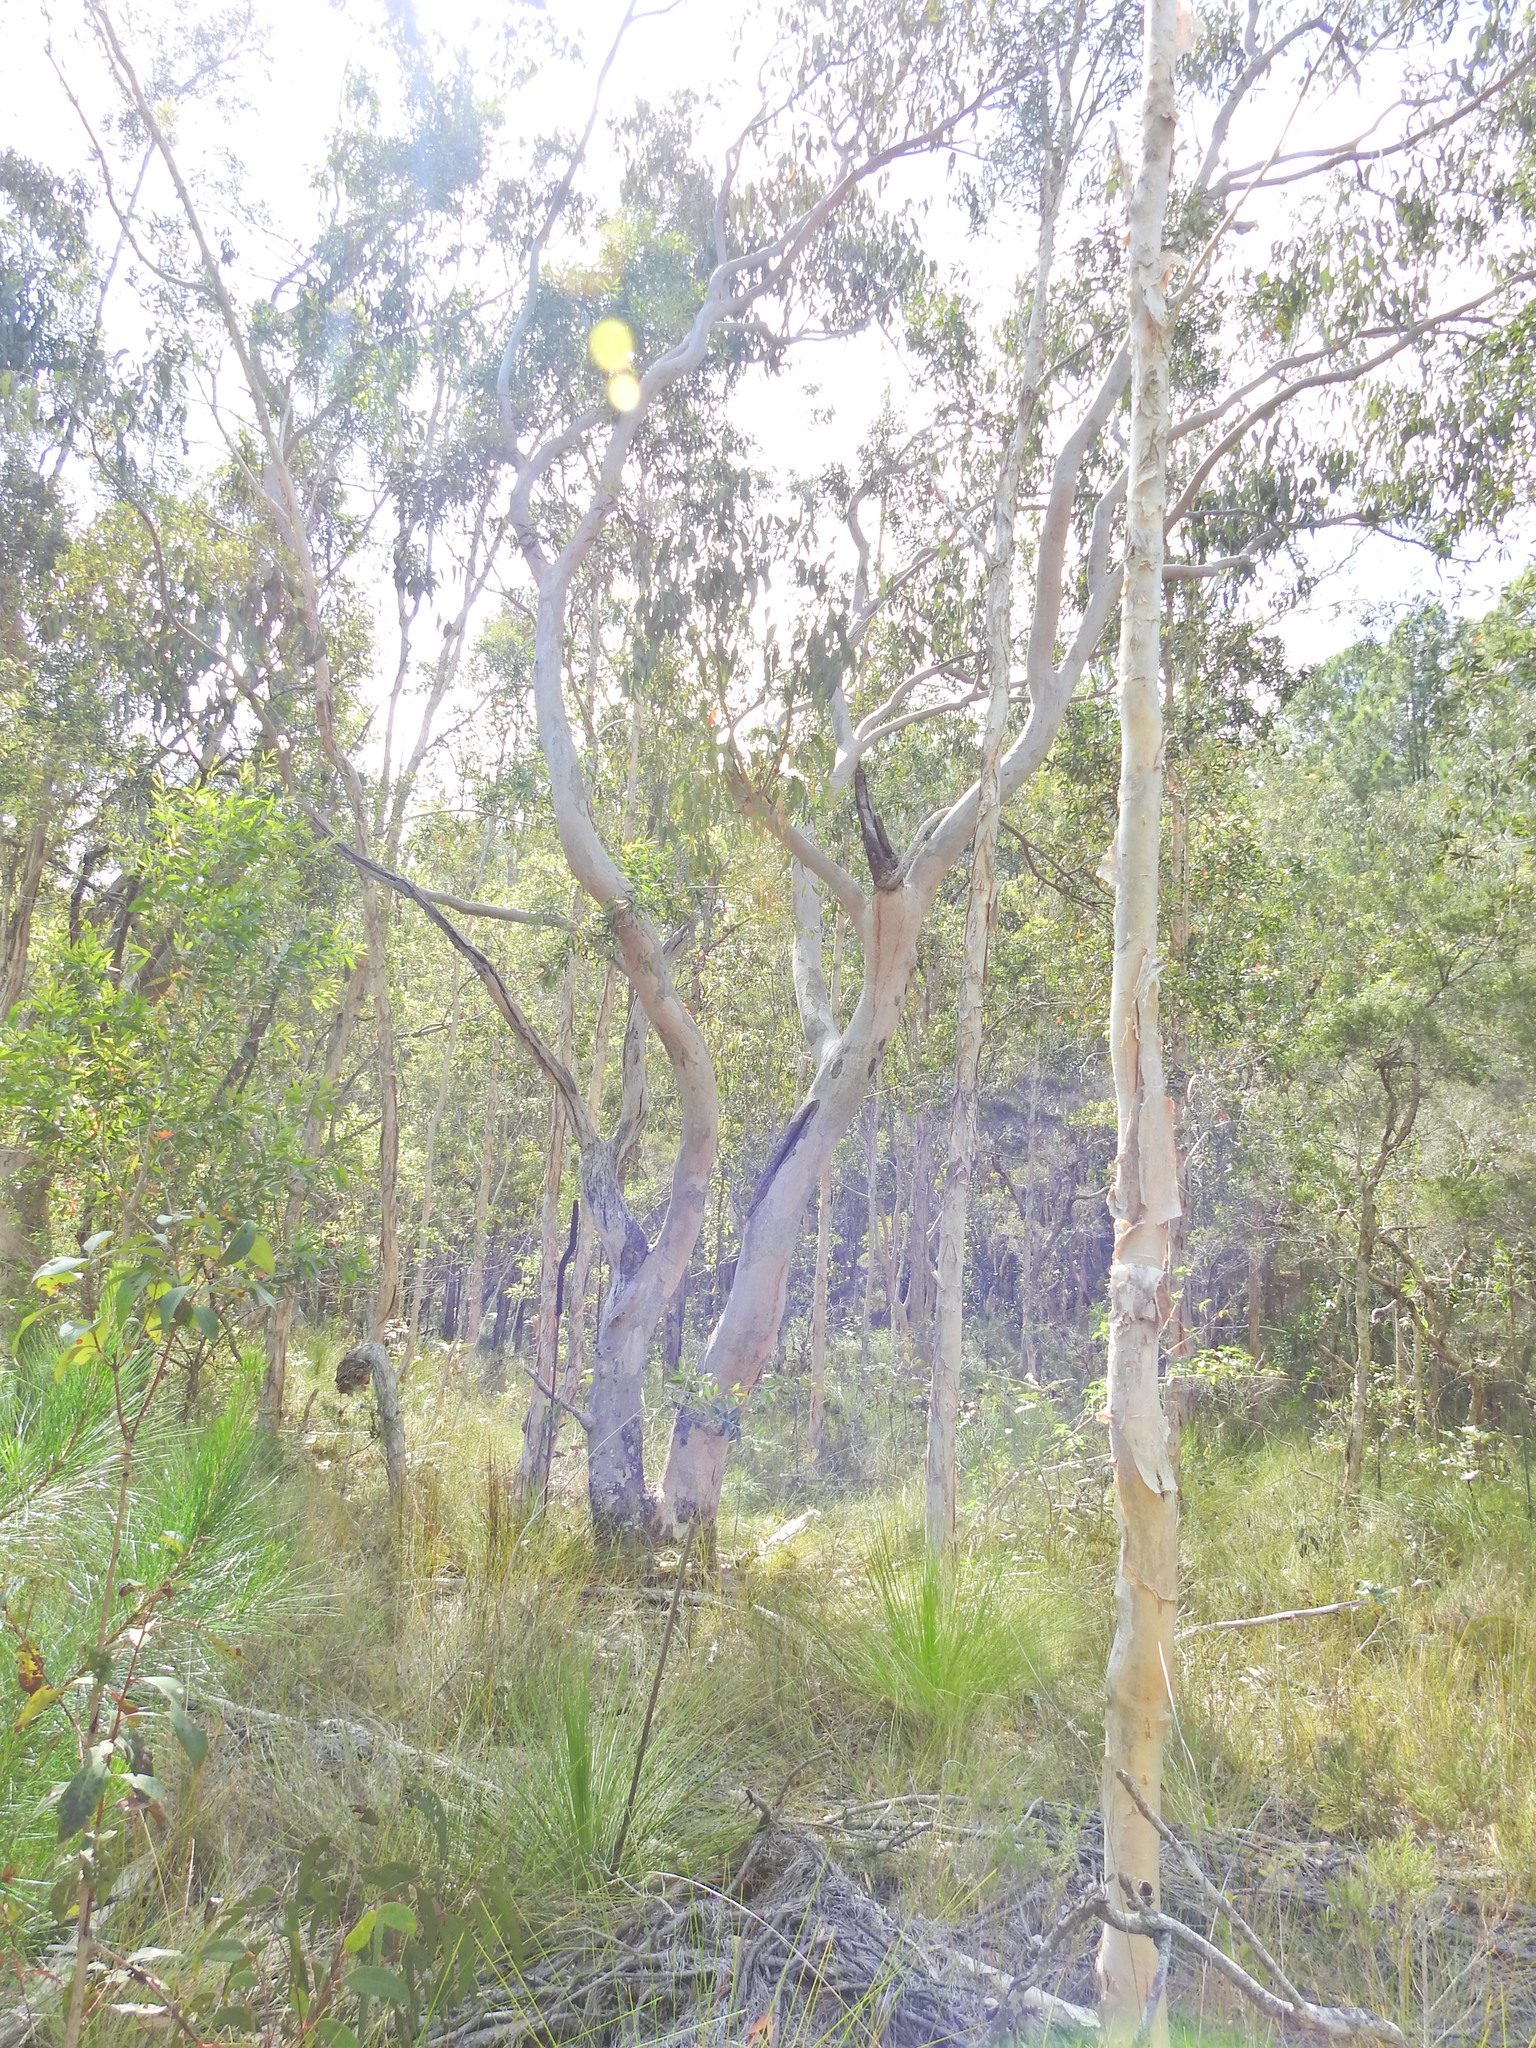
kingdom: Plantae
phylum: Tracheophyta
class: Magnoliopsida
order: Myrtales
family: Myrtaceae
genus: Eucalyptus
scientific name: Eucalyptus bancroftii
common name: Blue gum
